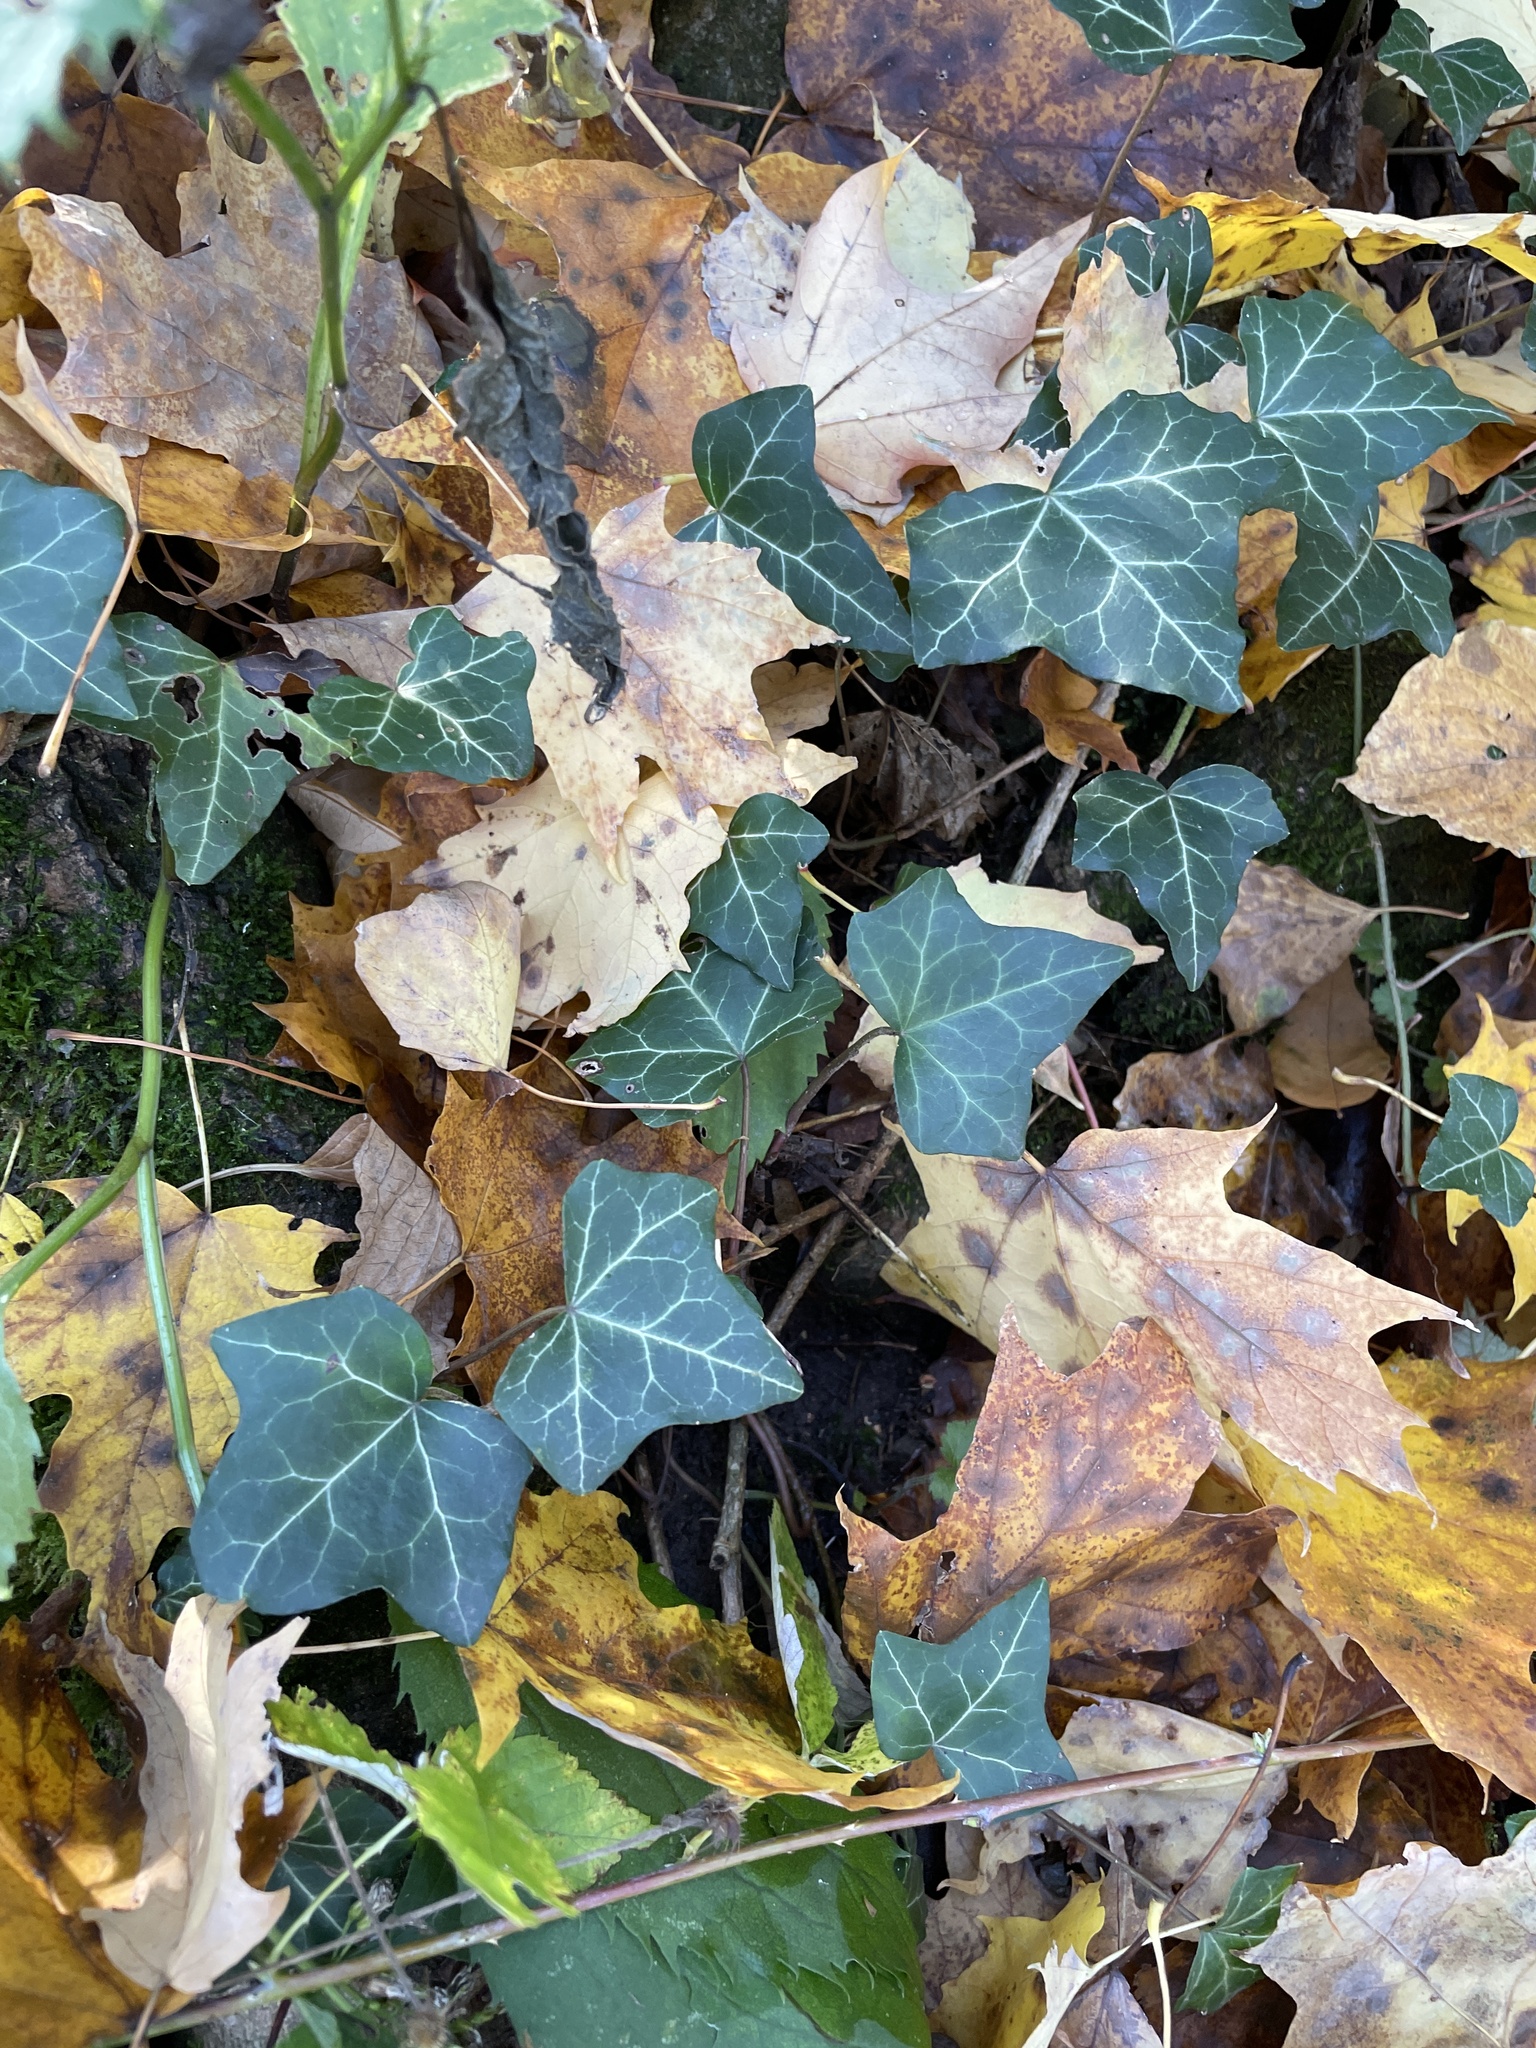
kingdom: Plantae
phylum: Tracheophyta
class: Magnoliopsida
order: Apiales
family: Araliaceae
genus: Hedera
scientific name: Hedera helix
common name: Ivy
